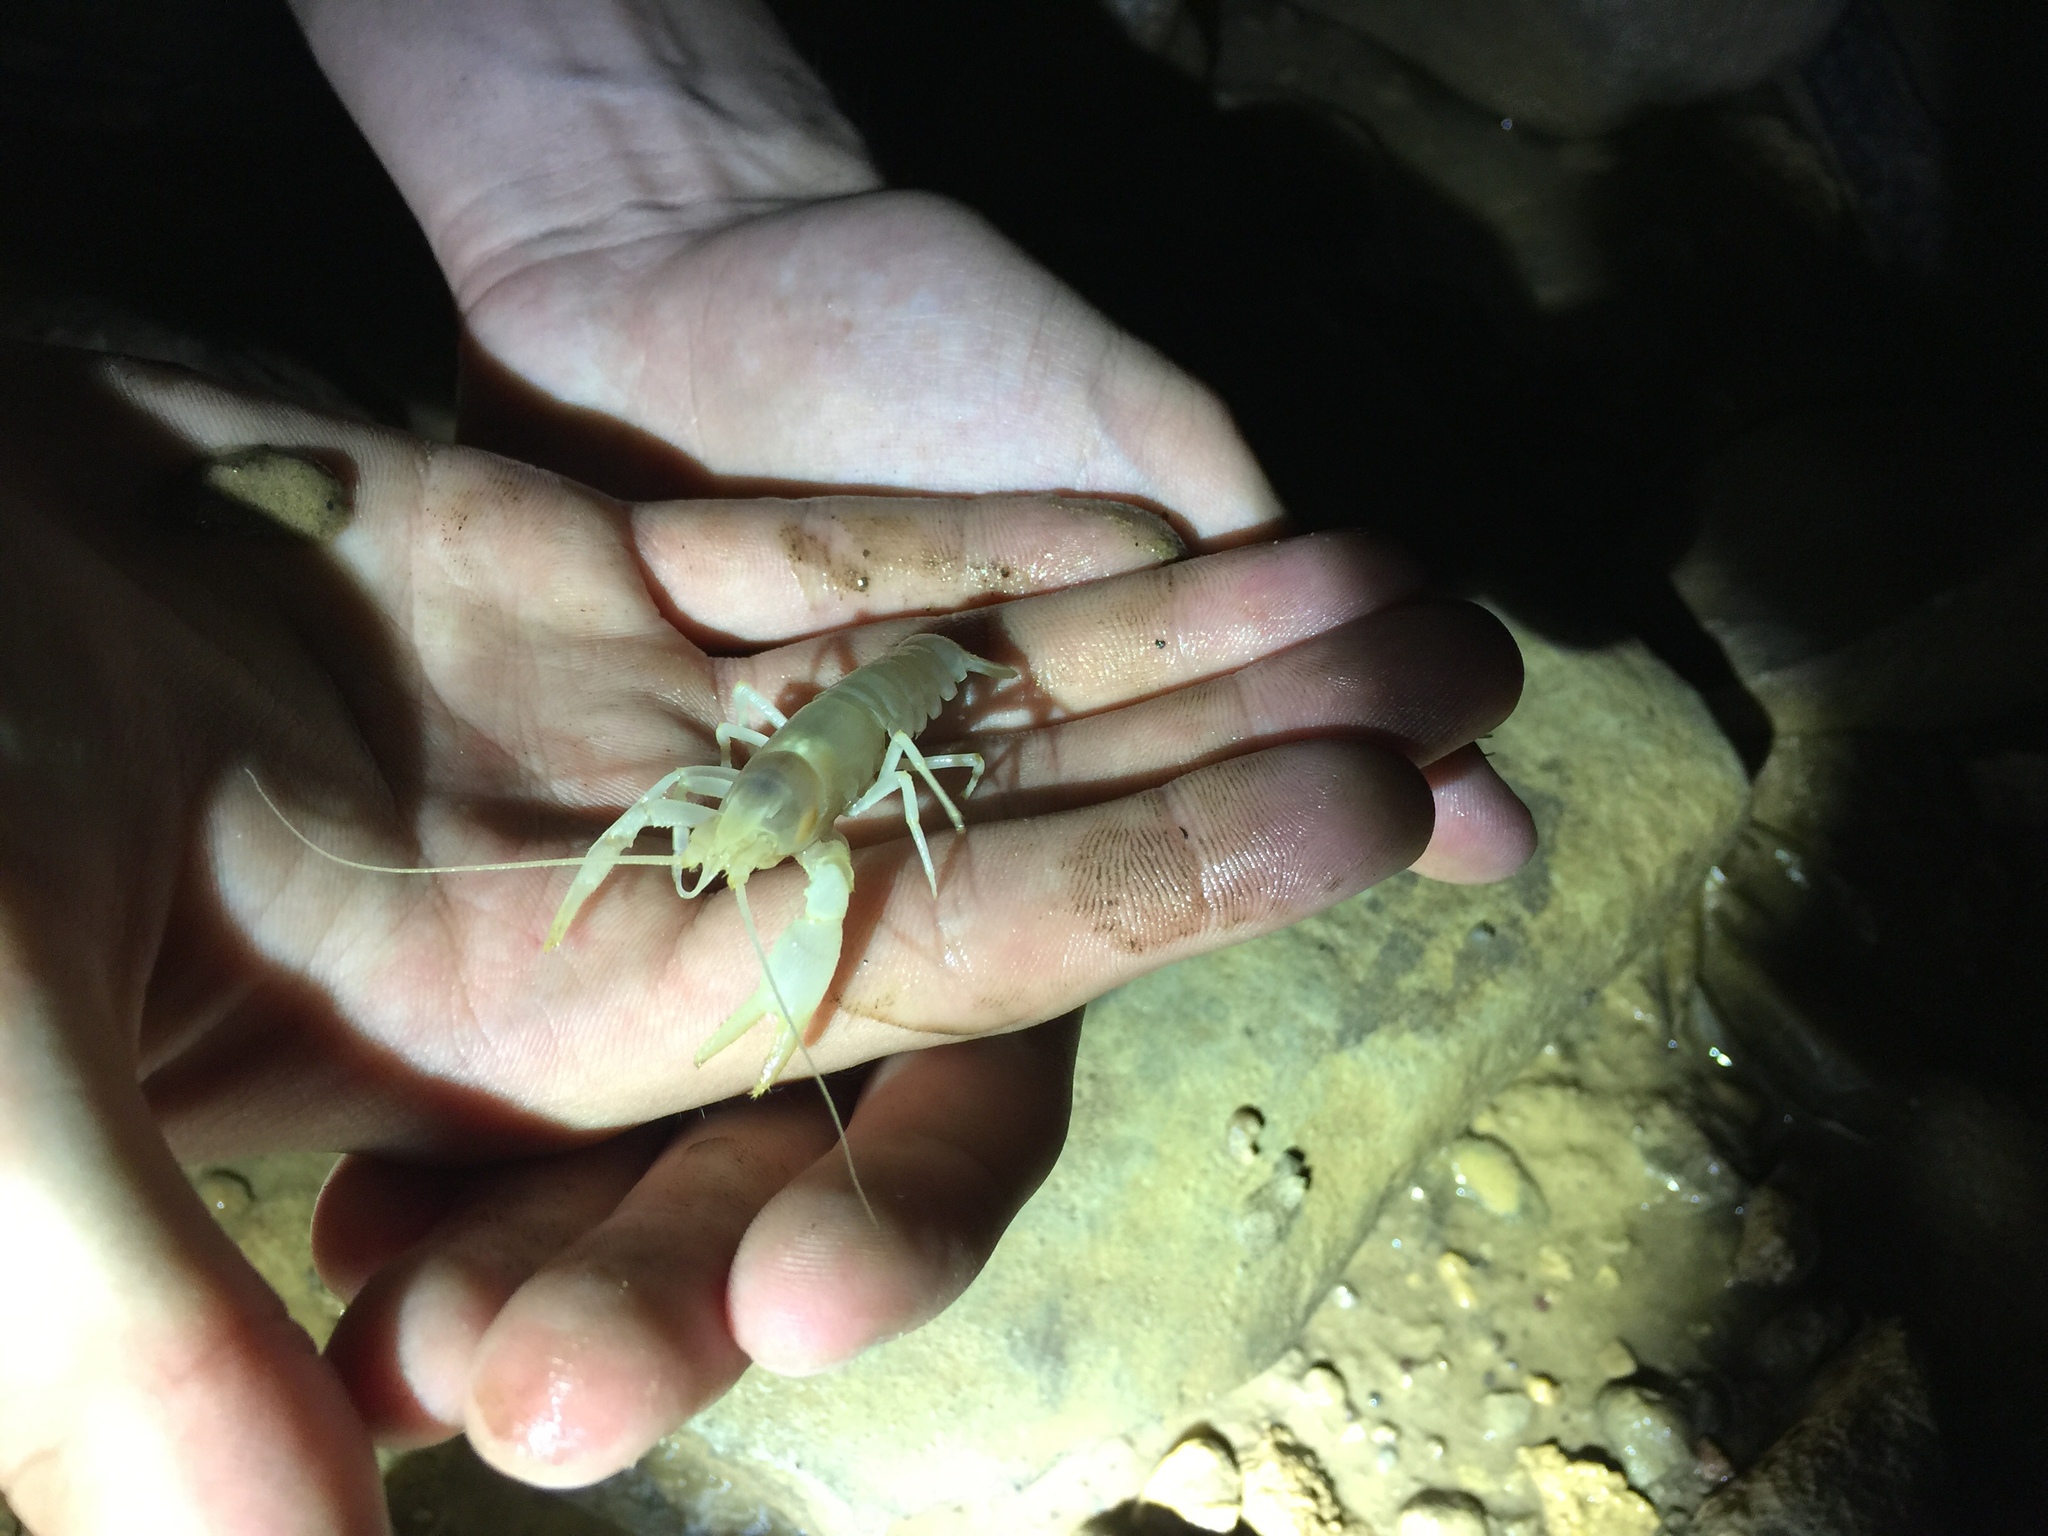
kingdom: Animalia
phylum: Arthropoda
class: Malacostraca
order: Decapoda
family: Cambaridae
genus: Orconectes
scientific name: Orconectes australis
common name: Southern cave crayfish
